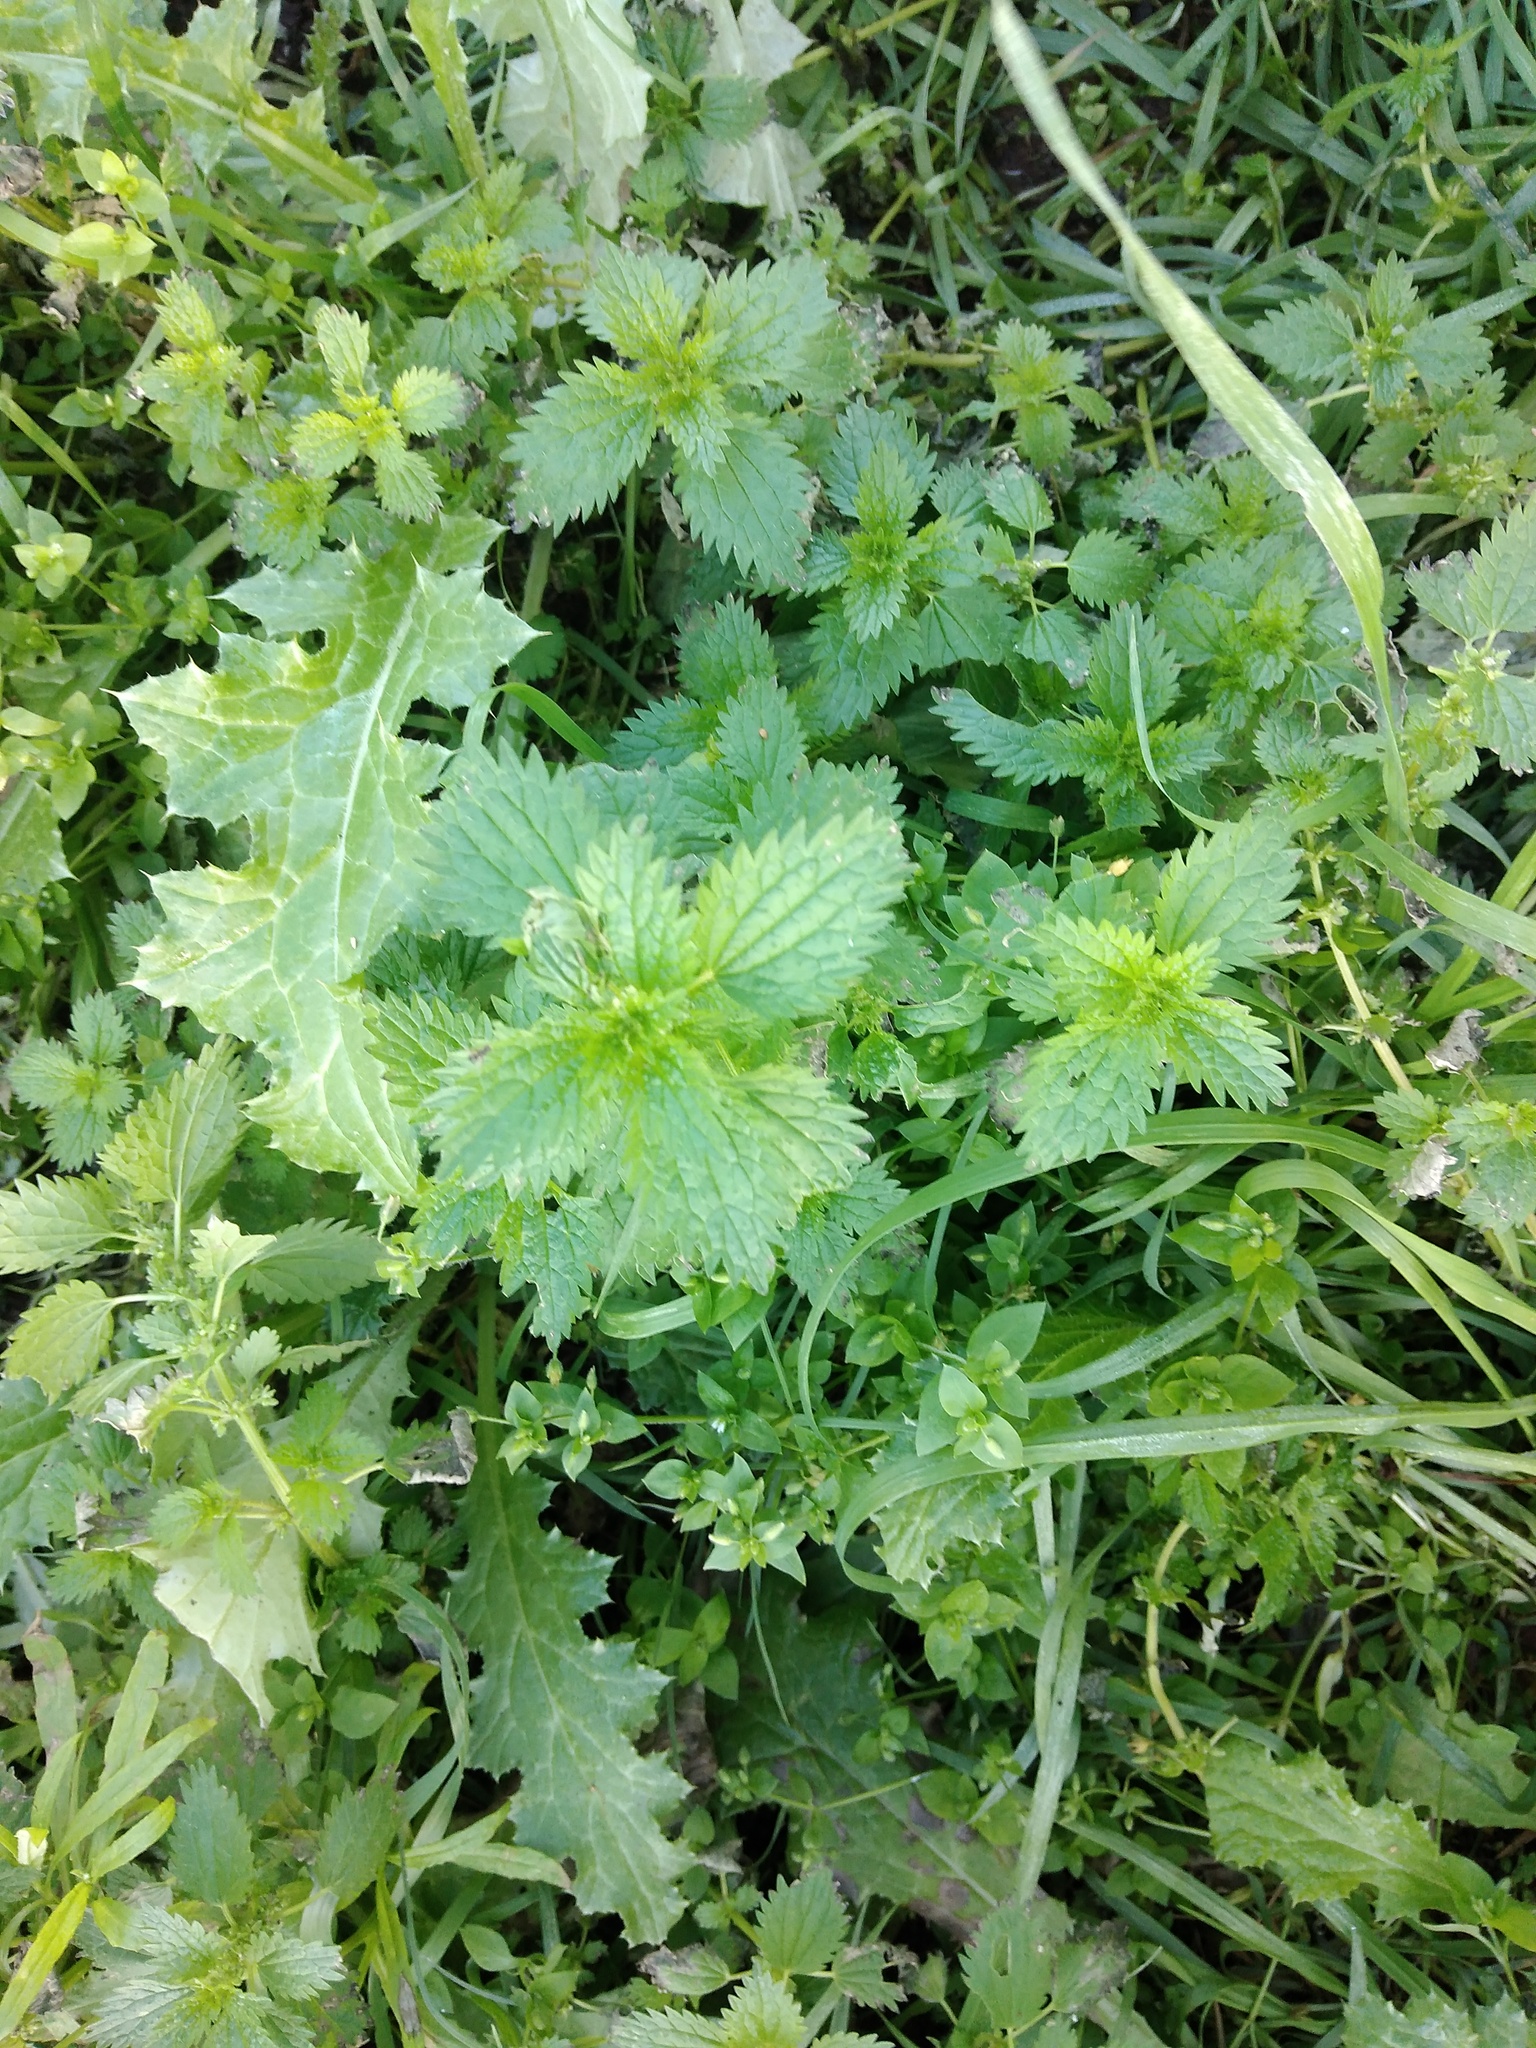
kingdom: Plantae
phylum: Tracheophyta
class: Magnoliopsida
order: Rosales
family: Urticaceae
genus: Urtica
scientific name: Urtica urens
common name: Dwarf nettle
